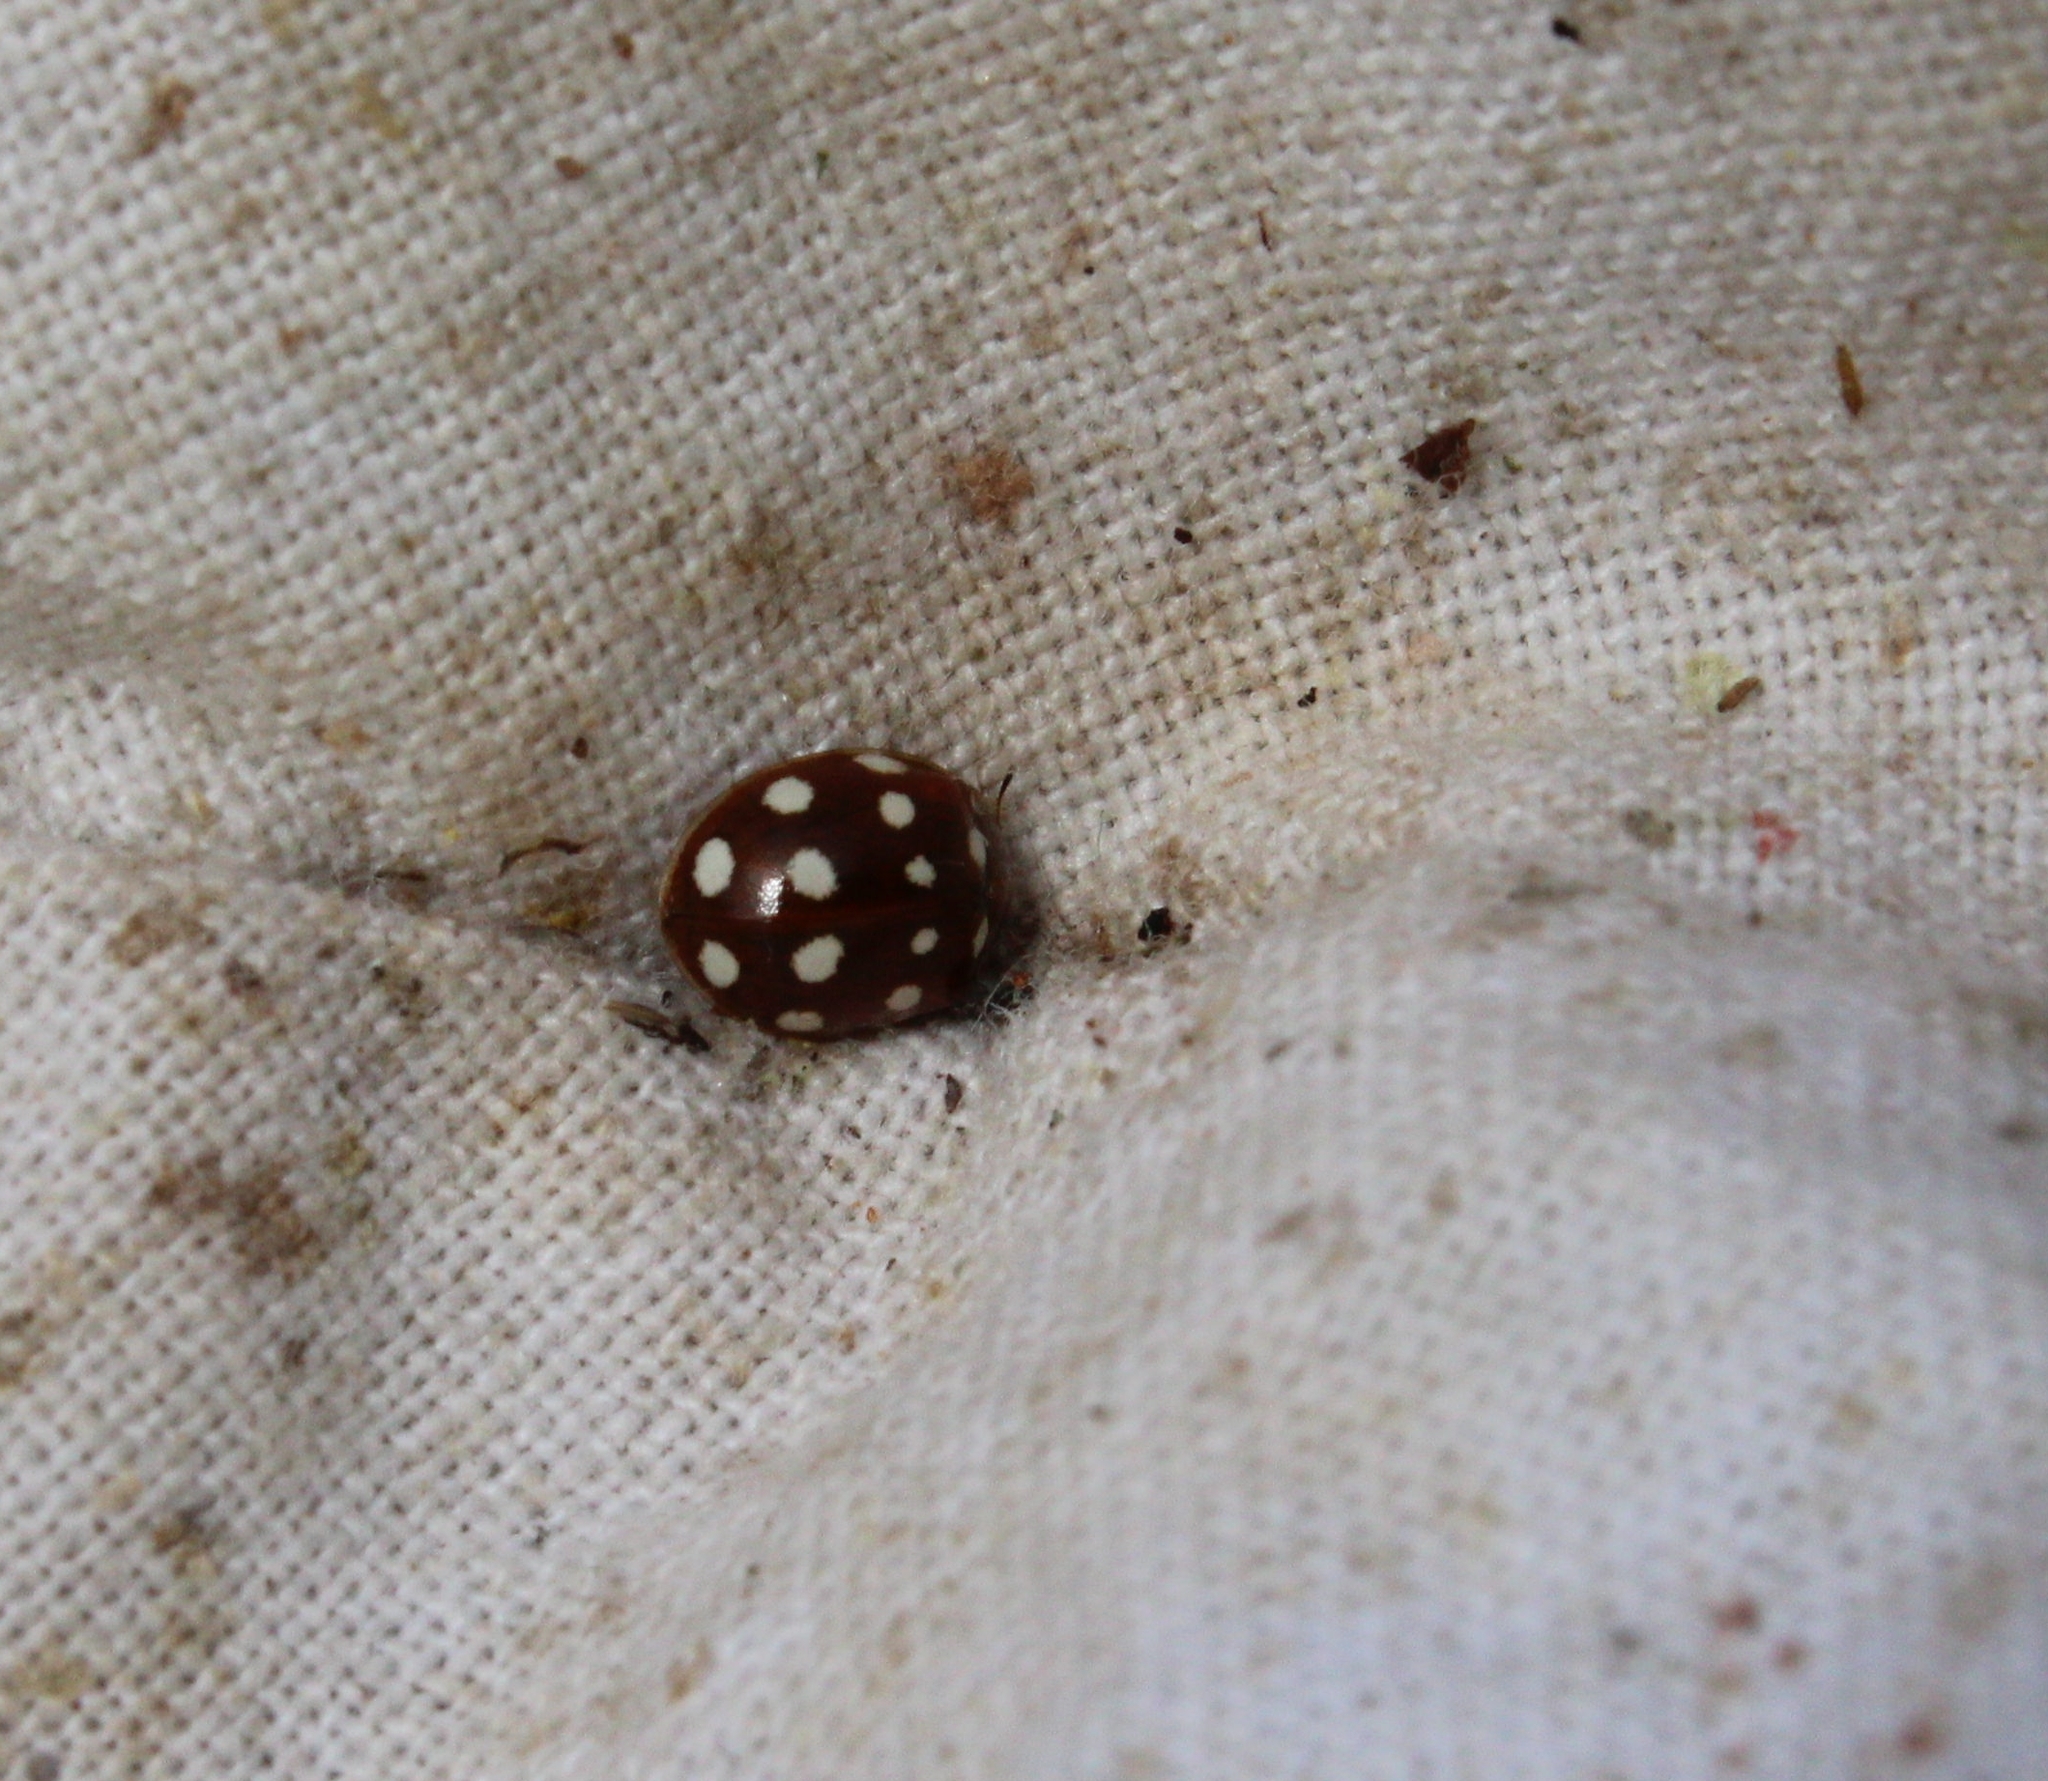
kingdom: Animalia
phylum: Arthropoda
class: Insecta
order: Coleoptera
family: Coccinellidae
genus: Calvia
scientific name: Calvia quatuordecimguttata
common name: Cream-spot ladybird
